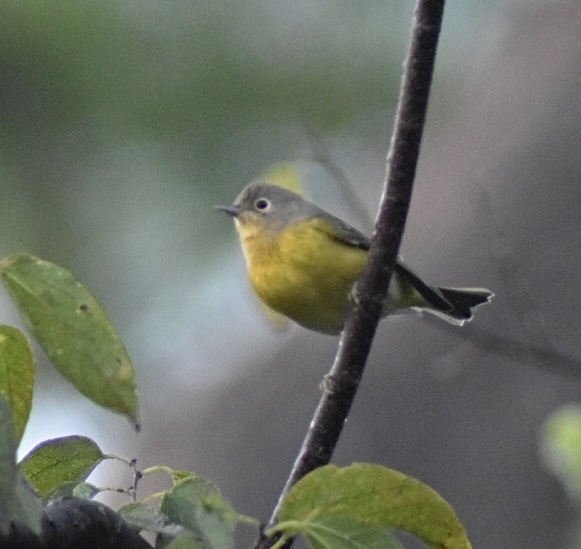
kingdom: Animalia
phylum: Chordata
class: Aves
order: Passeriformes
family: Parulidae
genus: Leiothlypis
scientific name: Leiothlypis ruficapilla
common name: Nashville warbler
